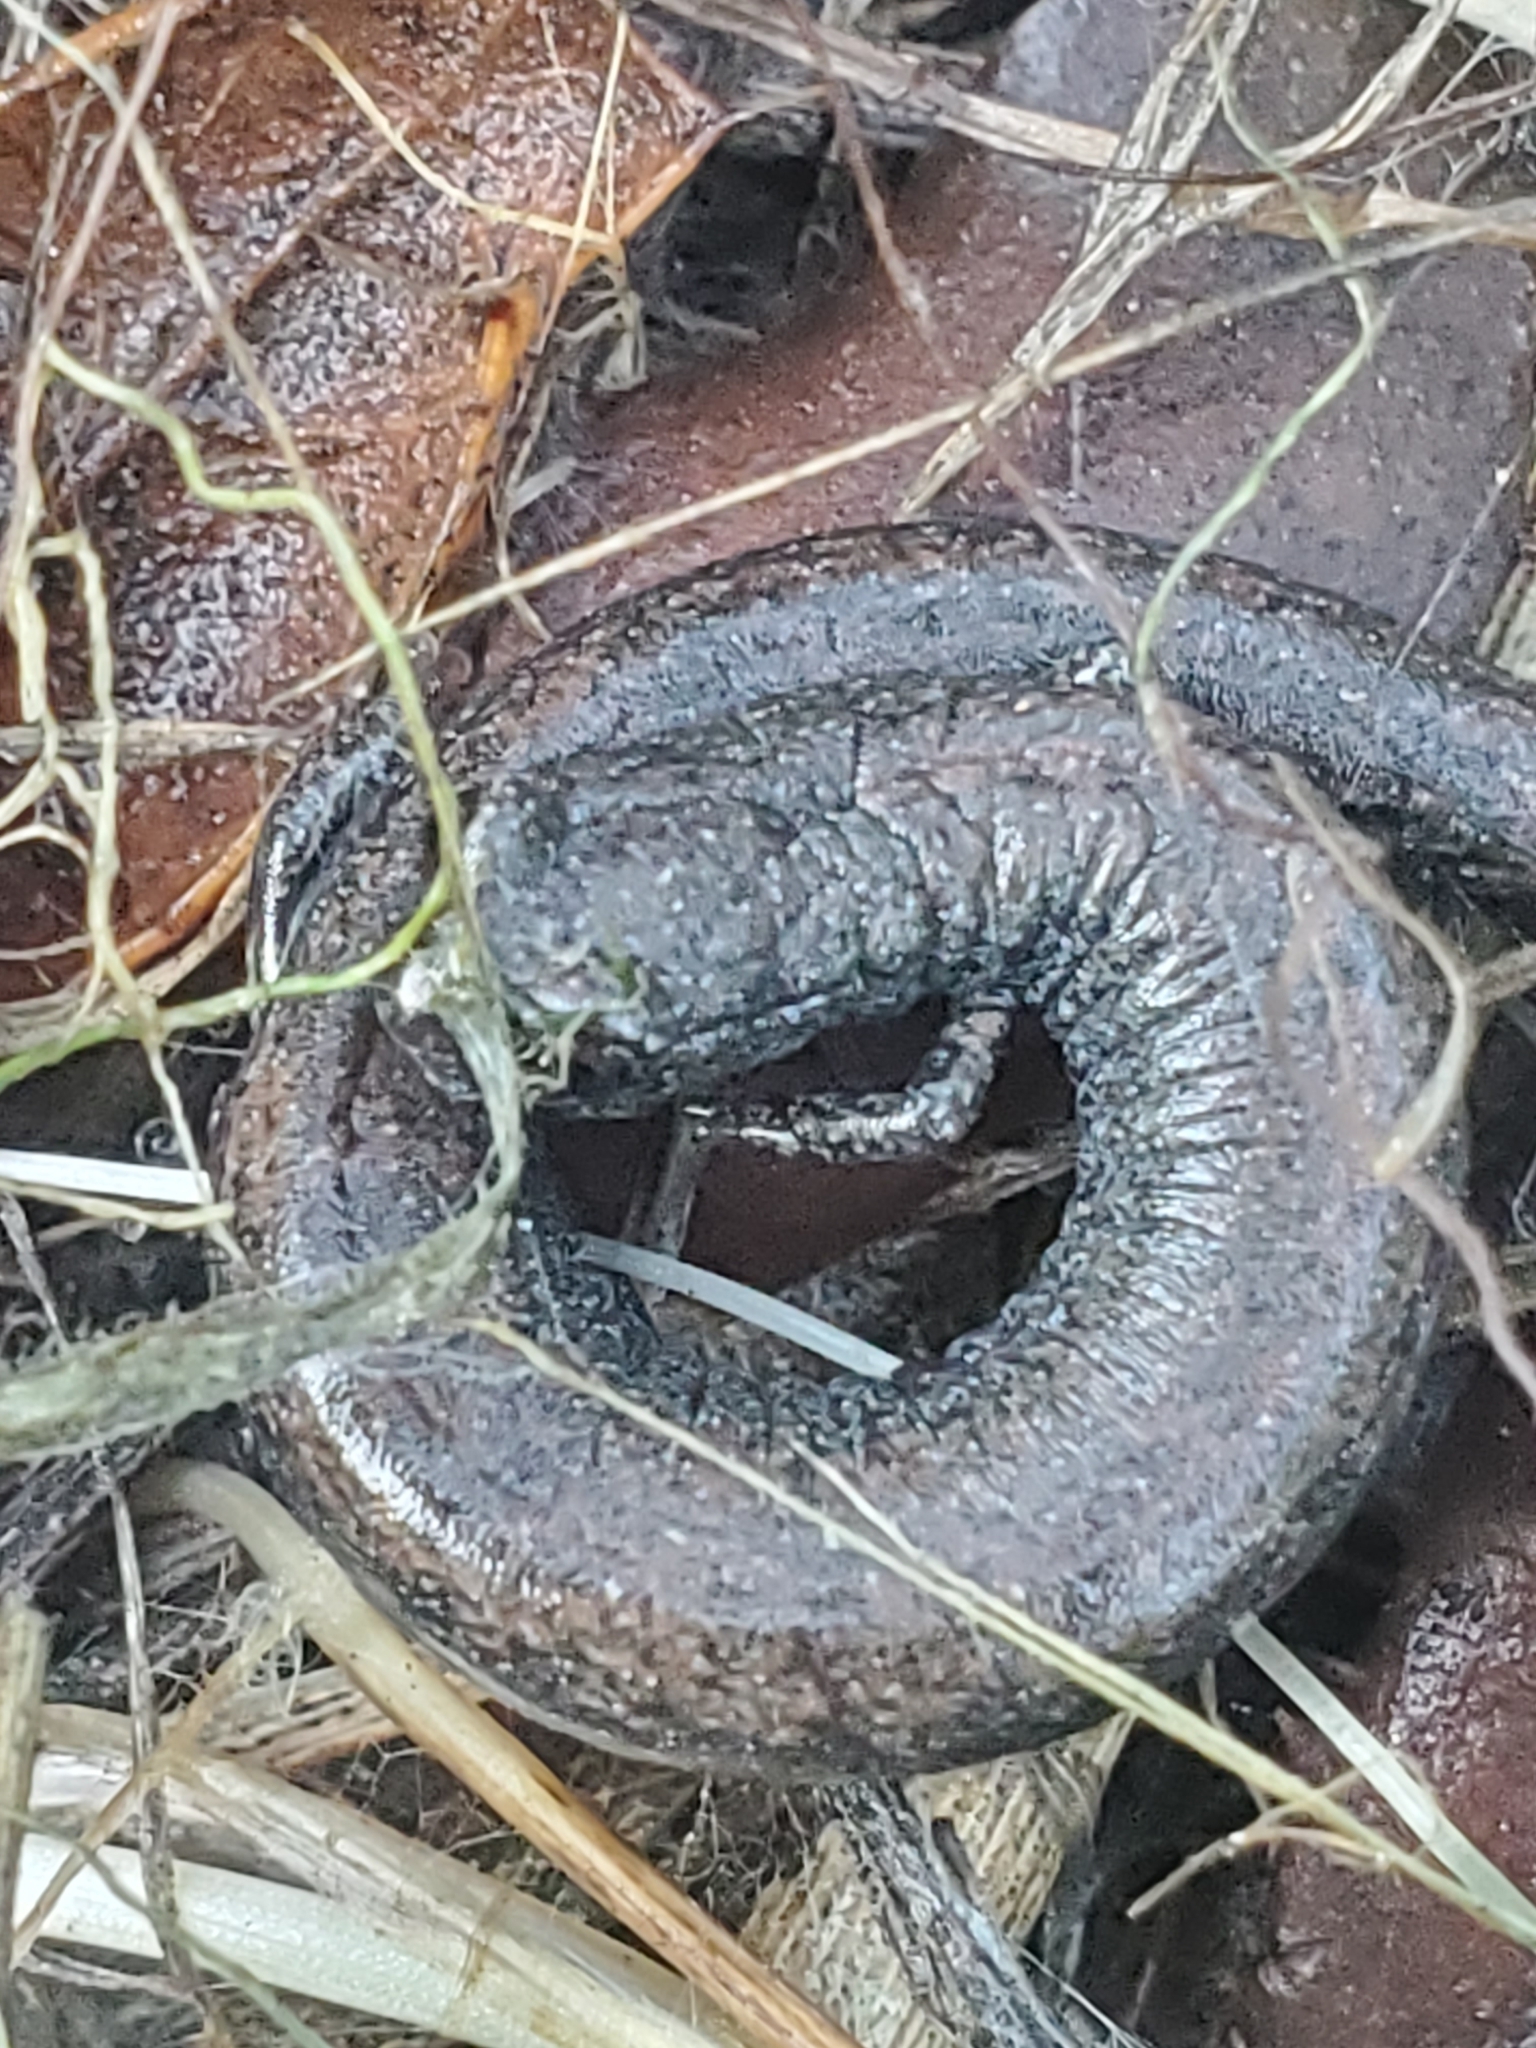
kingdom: Animalia
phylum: Chordata
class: Amphibia
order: Caudata
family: Plethodontidae
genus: Batrachoseps
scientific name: Batrachoseps
